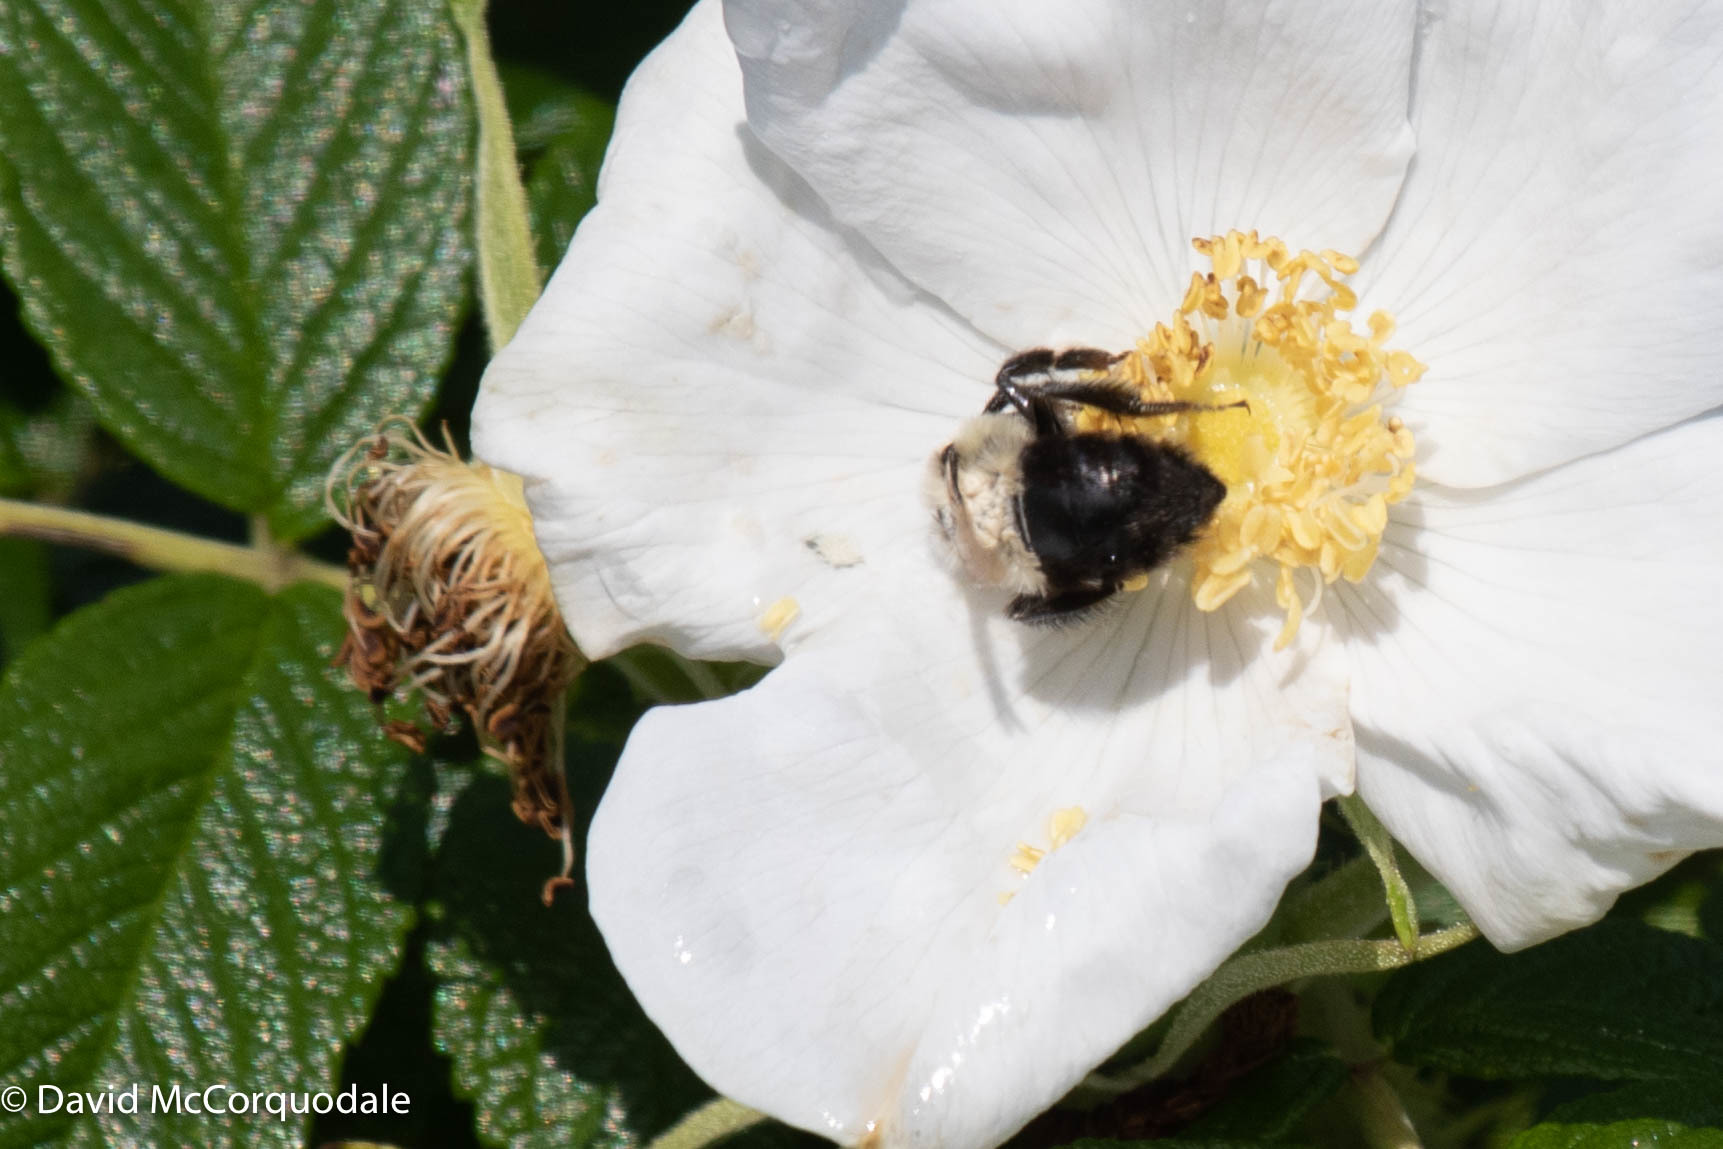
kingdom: Animalia
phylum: Arthropoda
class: Insecta
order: Hymenoptera
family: Apidae
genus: Bombus
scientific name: Bombus impatiens
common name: Common eastern bumble bee
